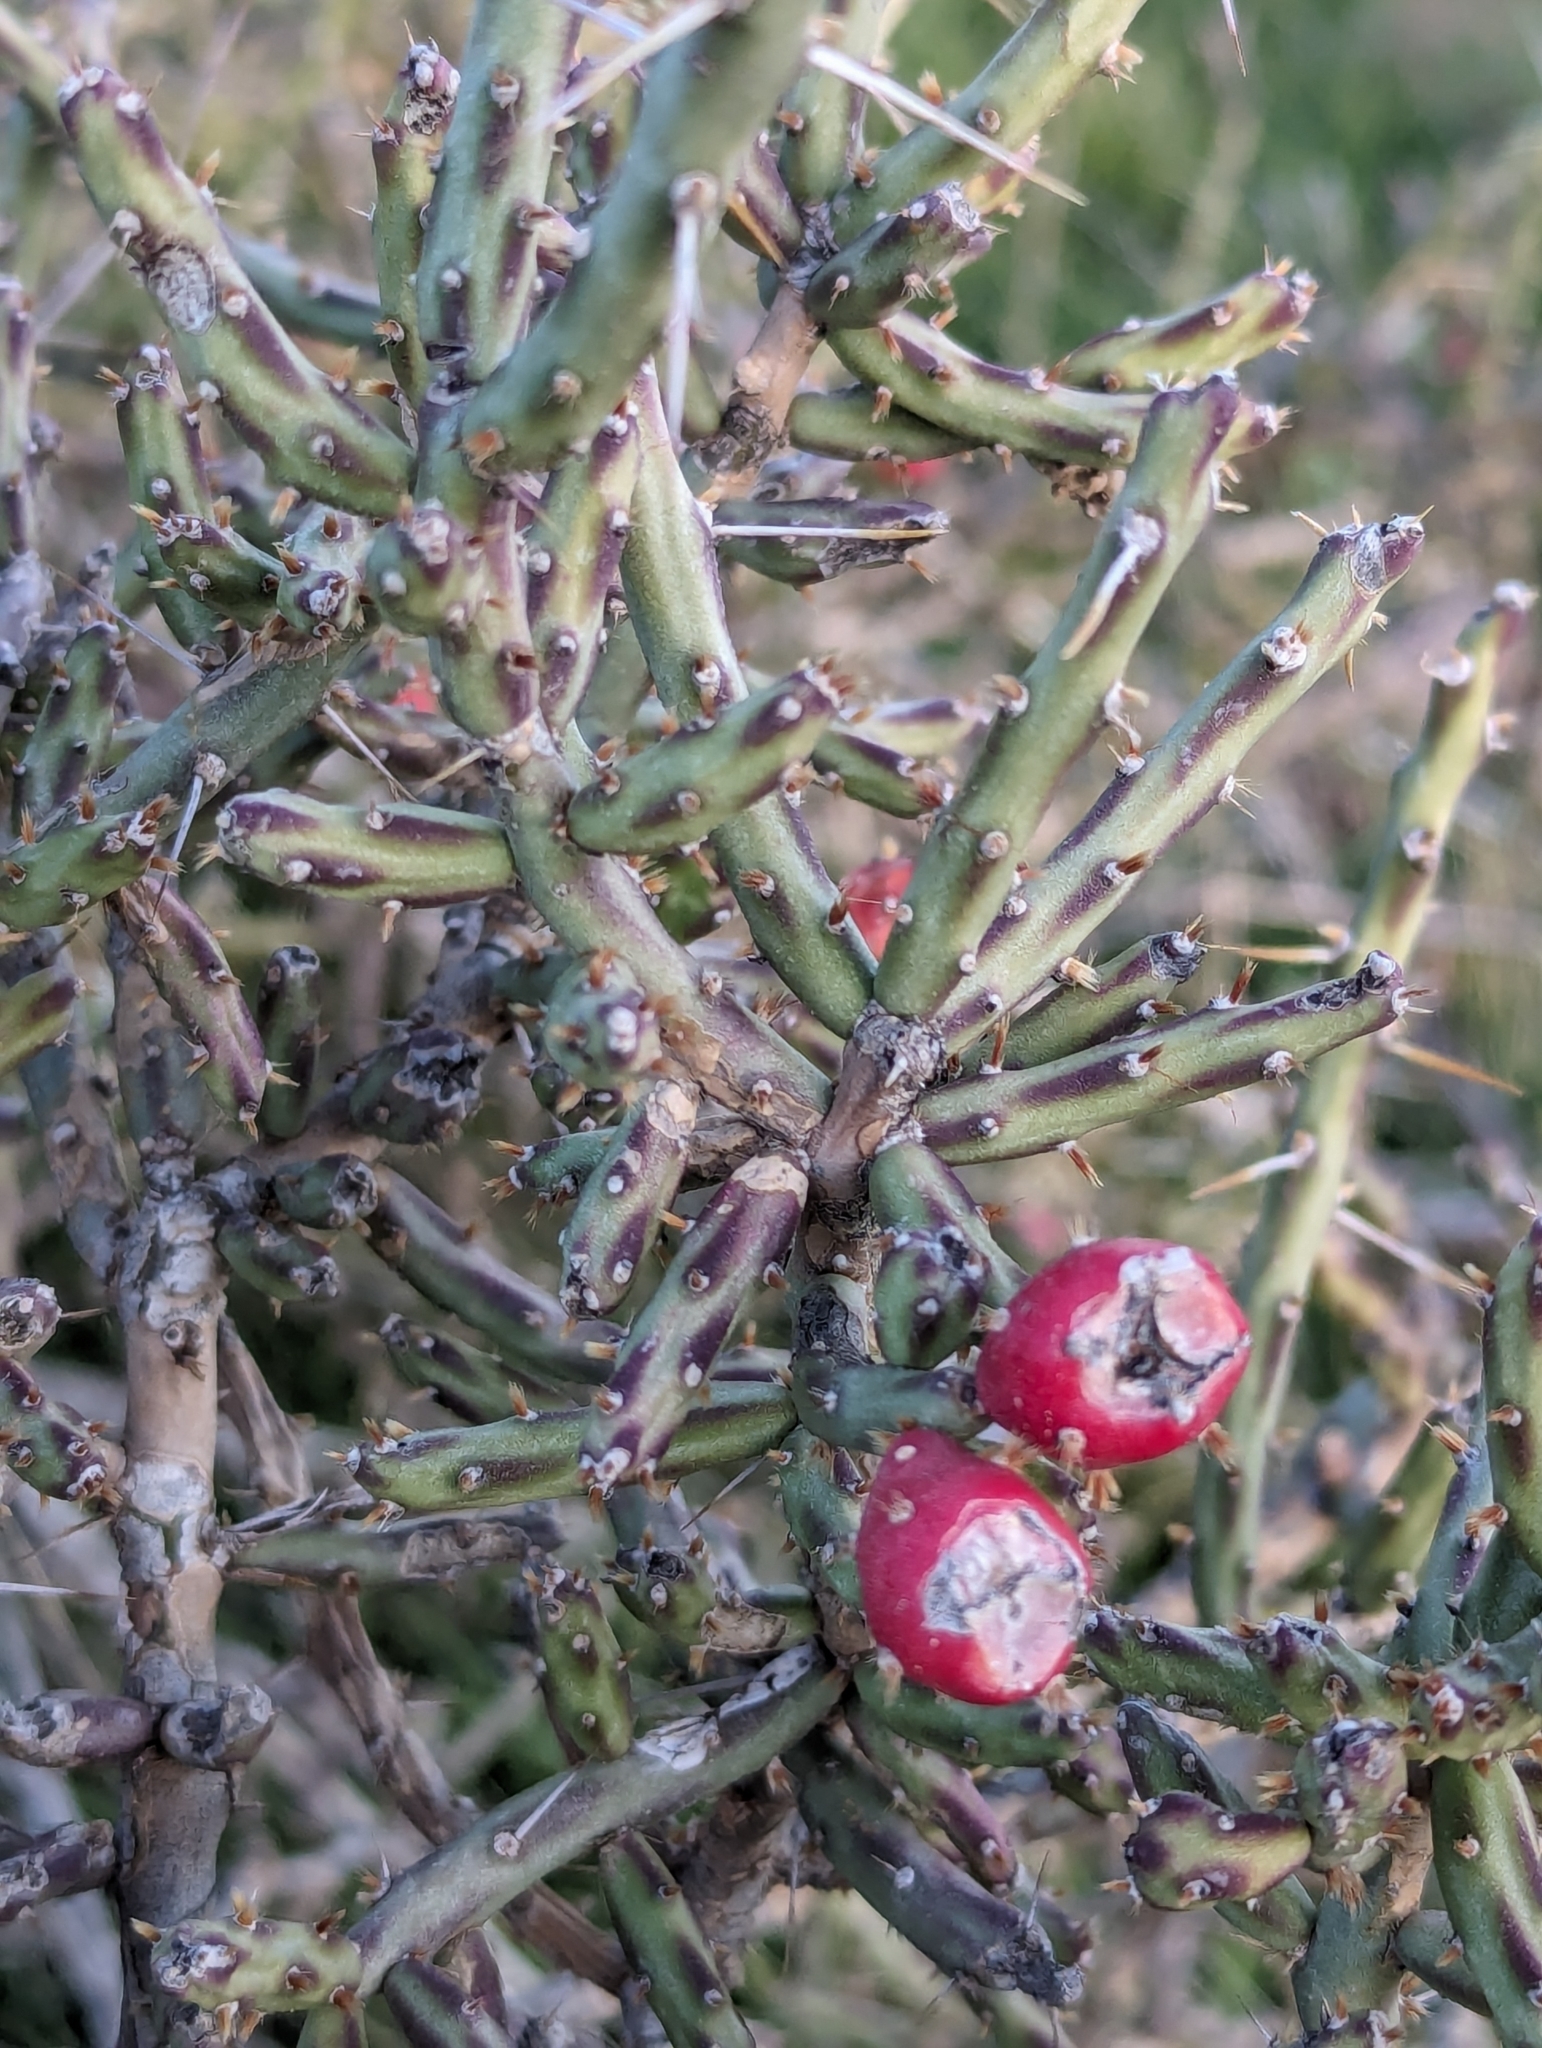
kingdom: Plantae
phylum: Tracheophyta
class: Magnoliopsida
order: Caryophyllales
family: Cactaceae
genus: Cylindropuntia
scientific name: Cylindropuntia leptocaulis
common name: Christmas cactus
